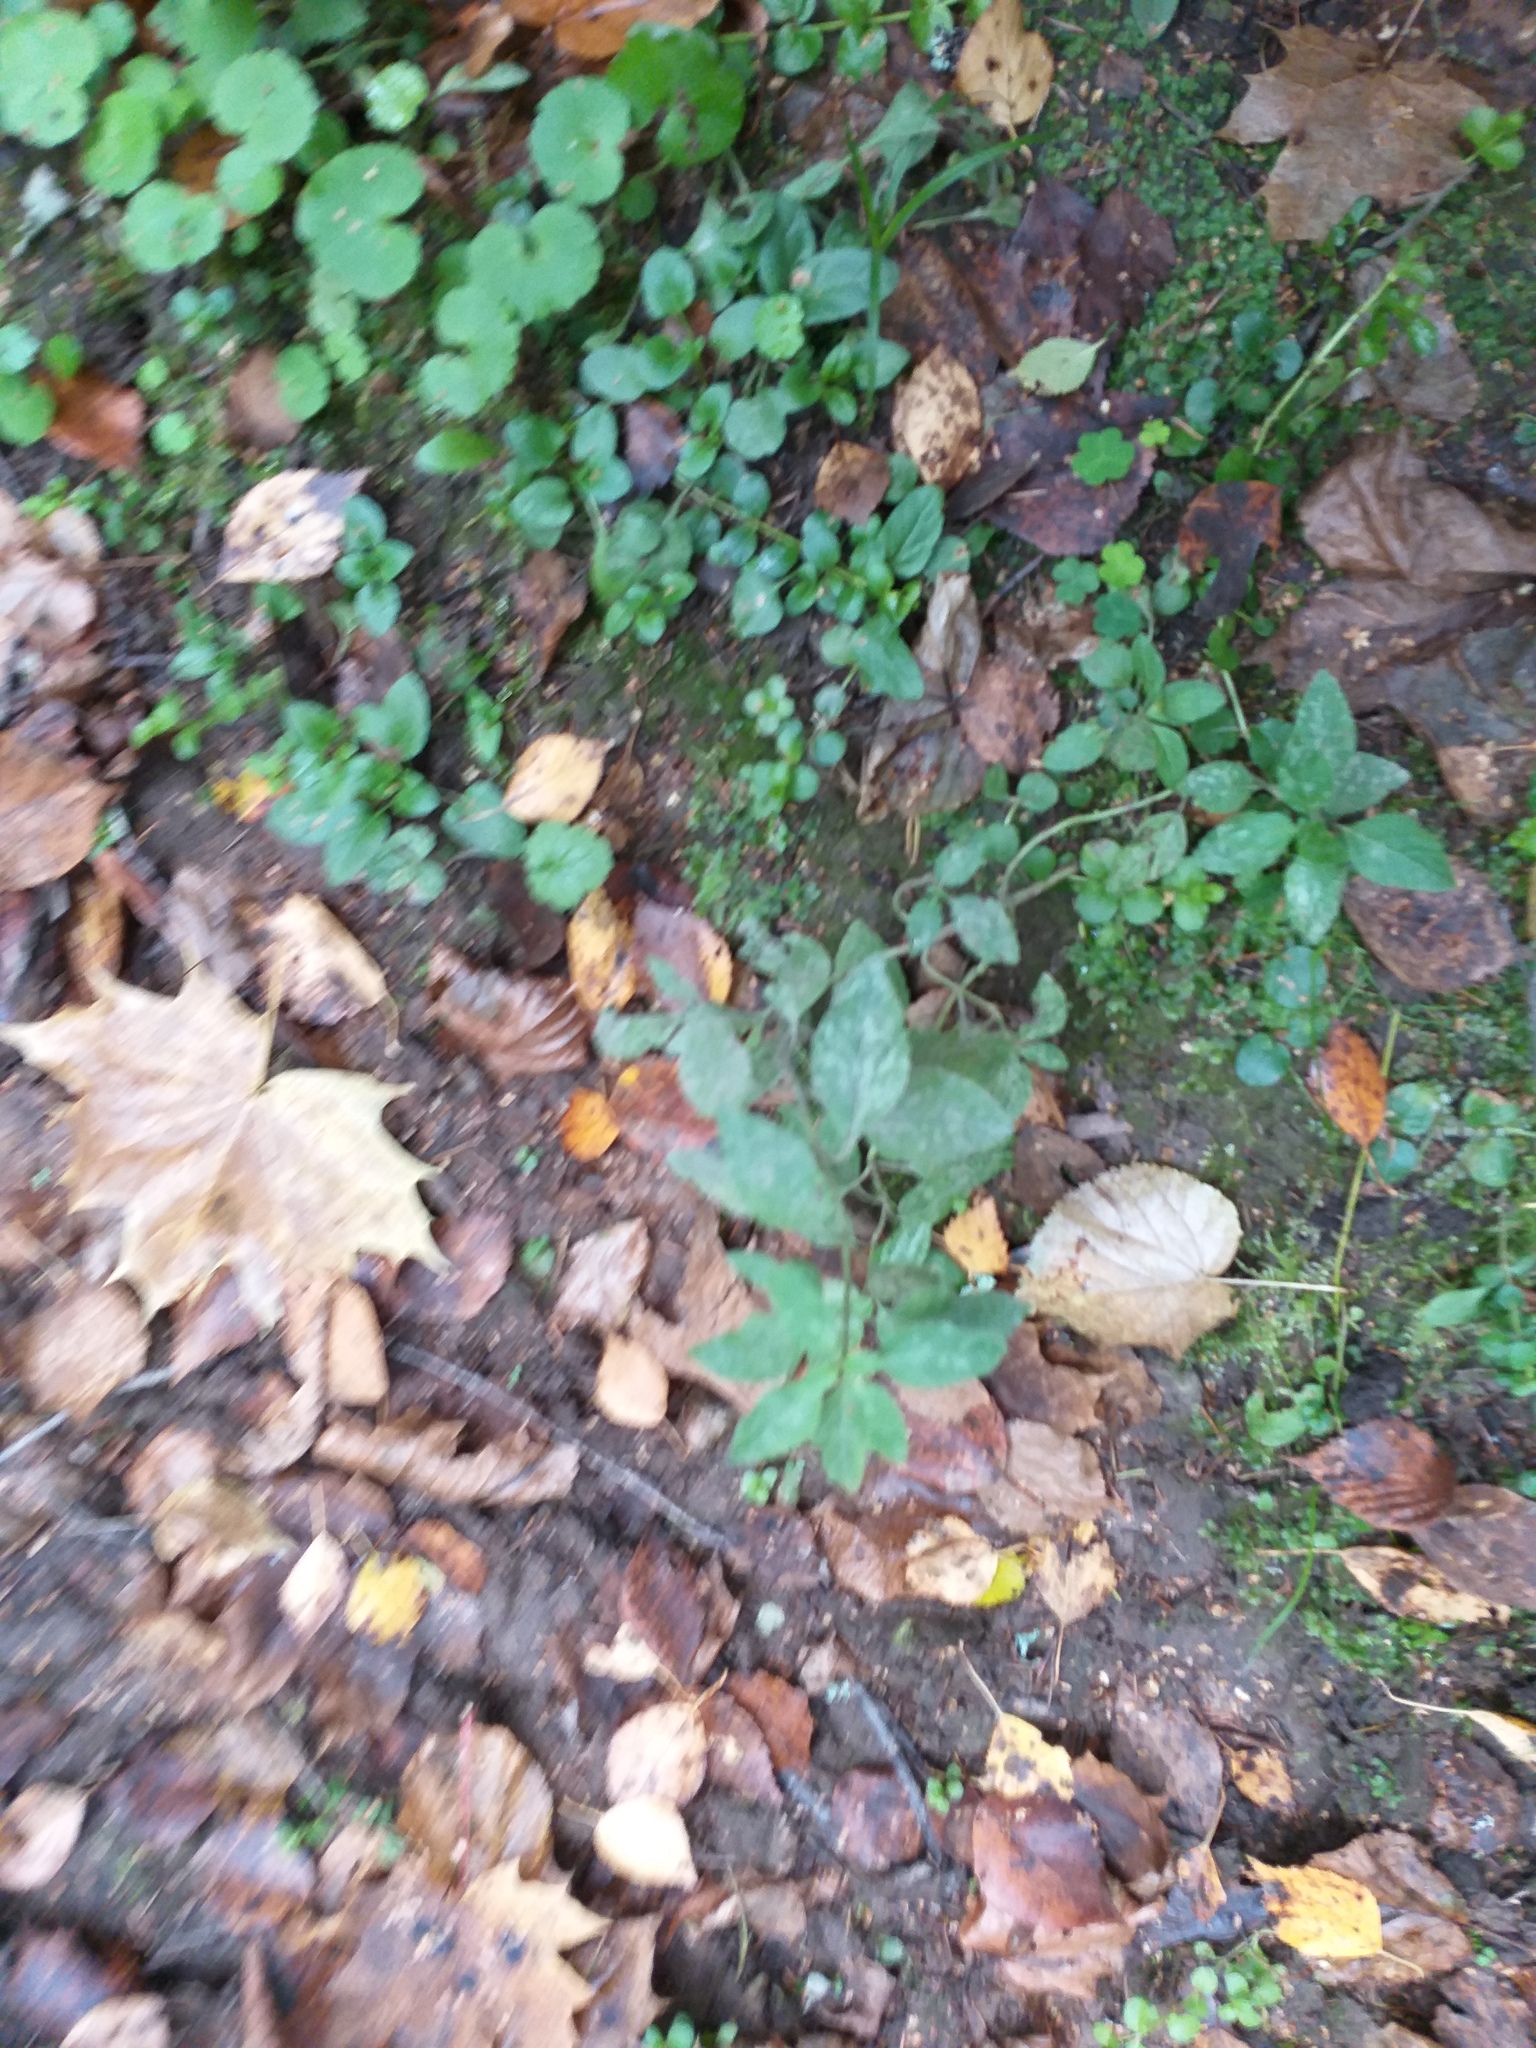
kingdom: Plantae
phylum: Tracheophyta
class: Magnoliopsida
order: Lamiales
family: Lamiaceae
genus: Mentha
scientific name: Mentha arvensis
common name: Corn mint
